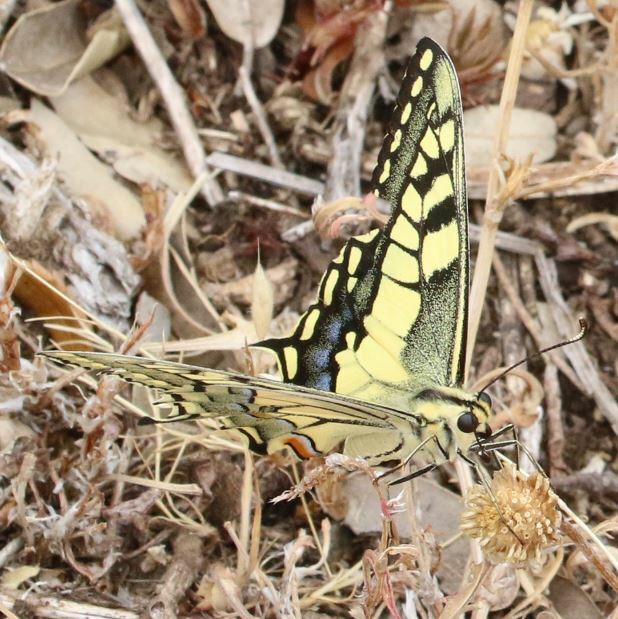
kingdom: Animalia
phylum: Arthropoda
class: Insecta
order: Lepidoptera
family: Papilionidae
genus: Papilio
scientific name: Papilio machaon
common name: Swallowtail
